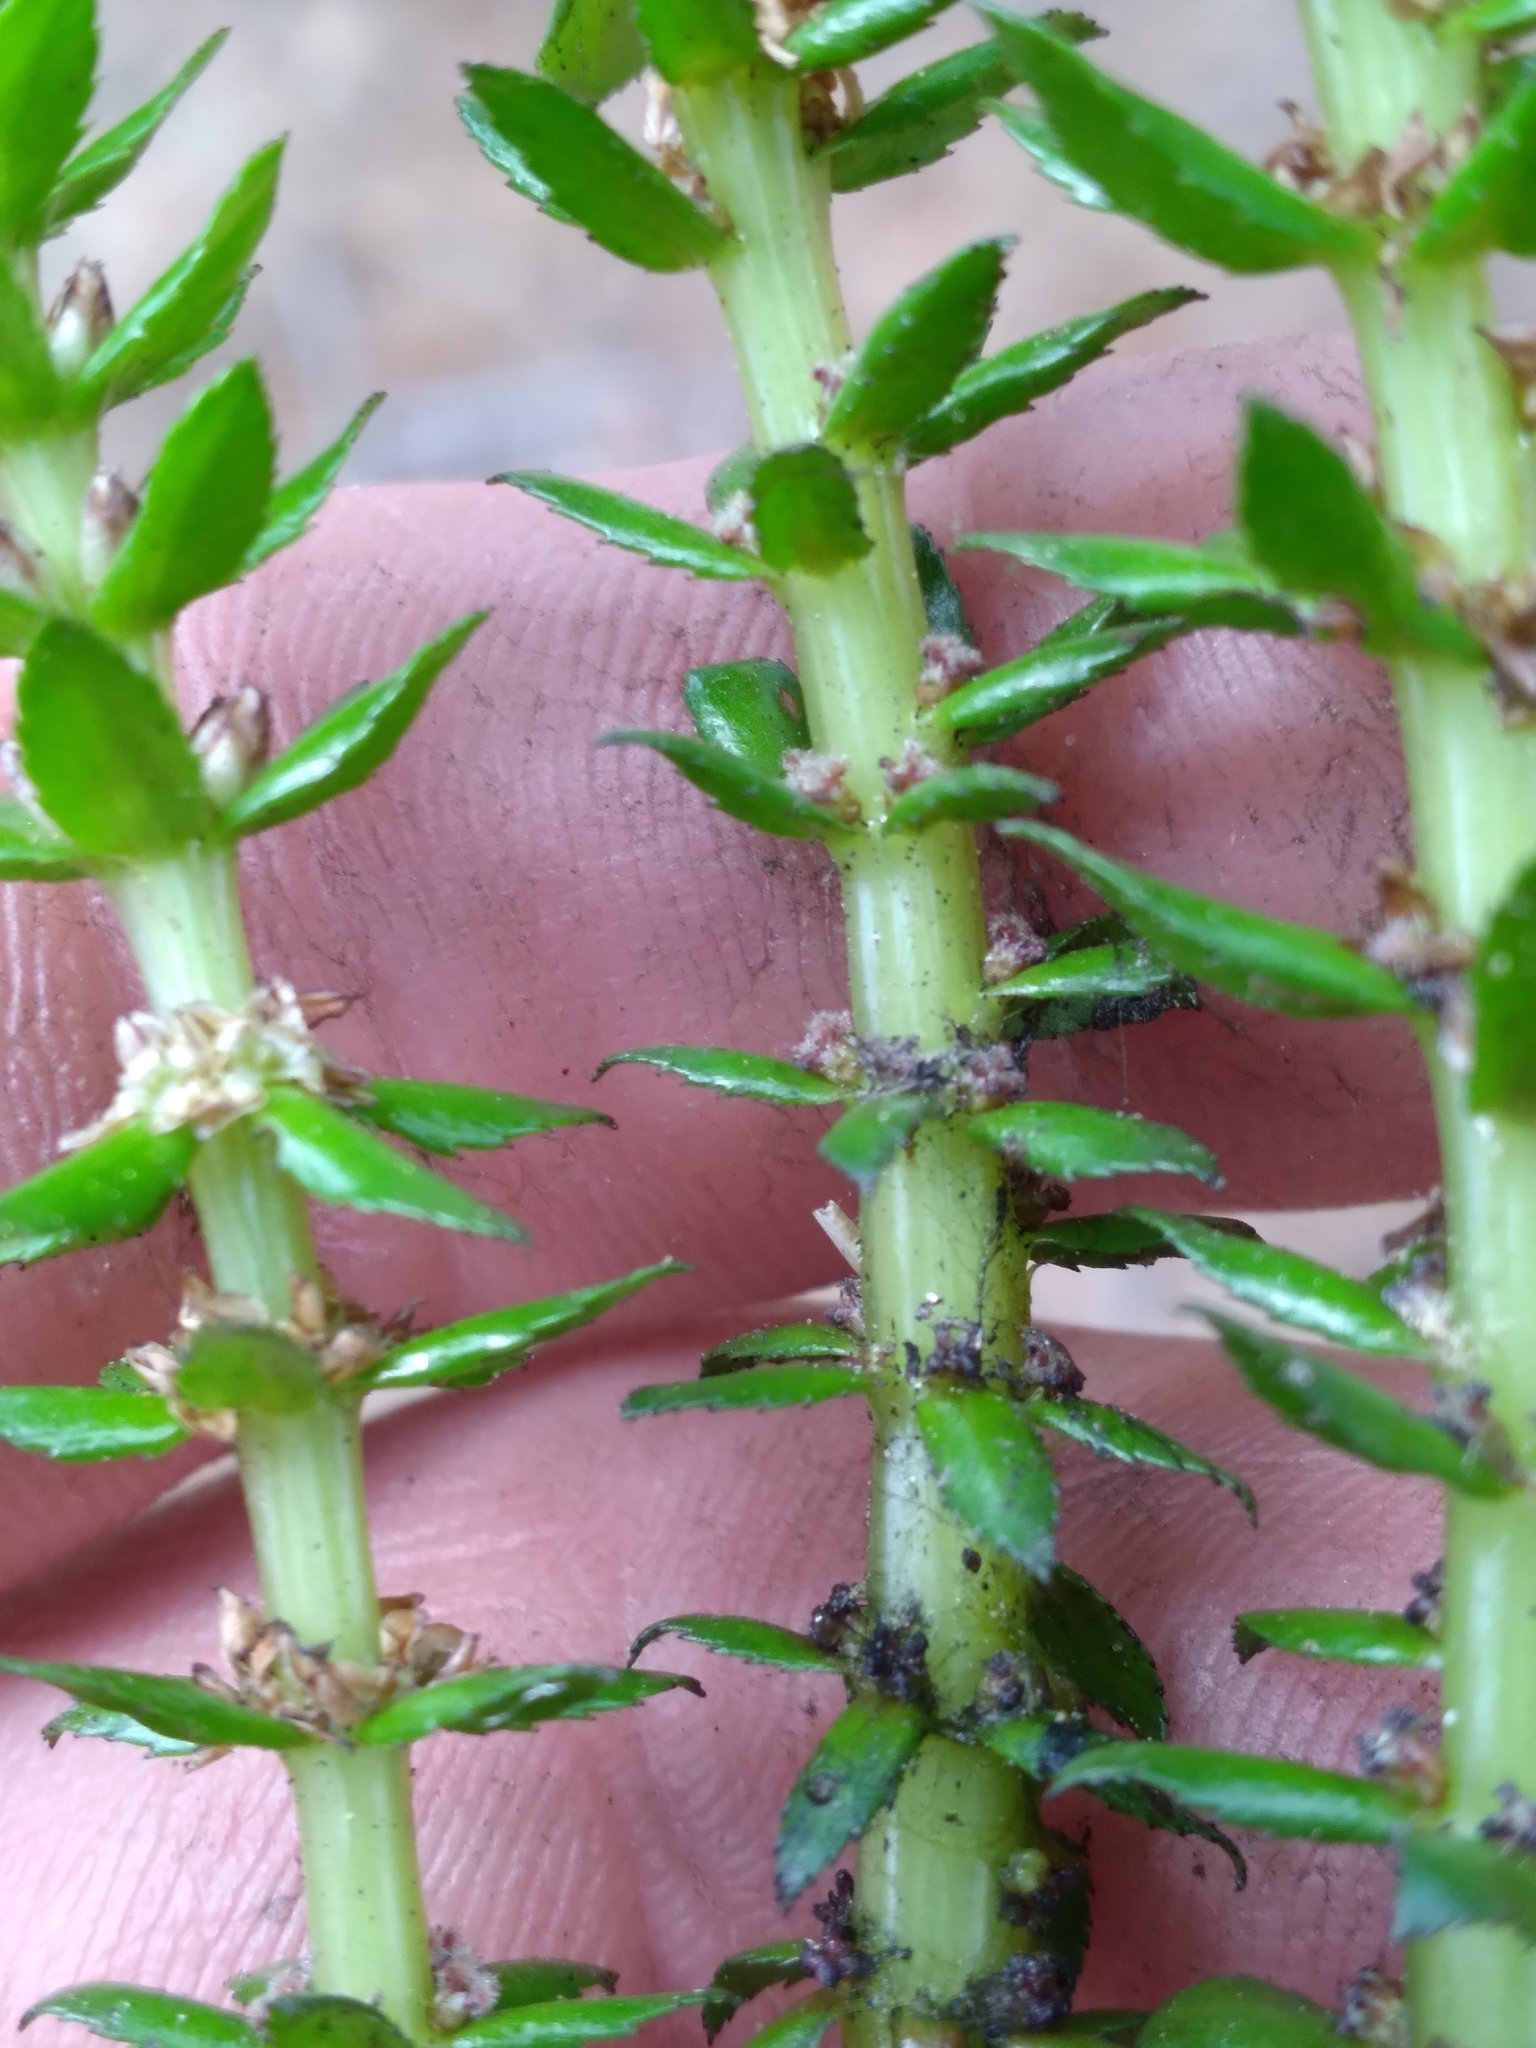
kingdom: Plantae
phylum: Tracheophyta
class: Magnoliopsida
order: Saxifragales
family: Haloragaceae
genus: Myriophyllum
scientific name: Myriophyllum heterophyllum
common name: Variable watermilfoil
